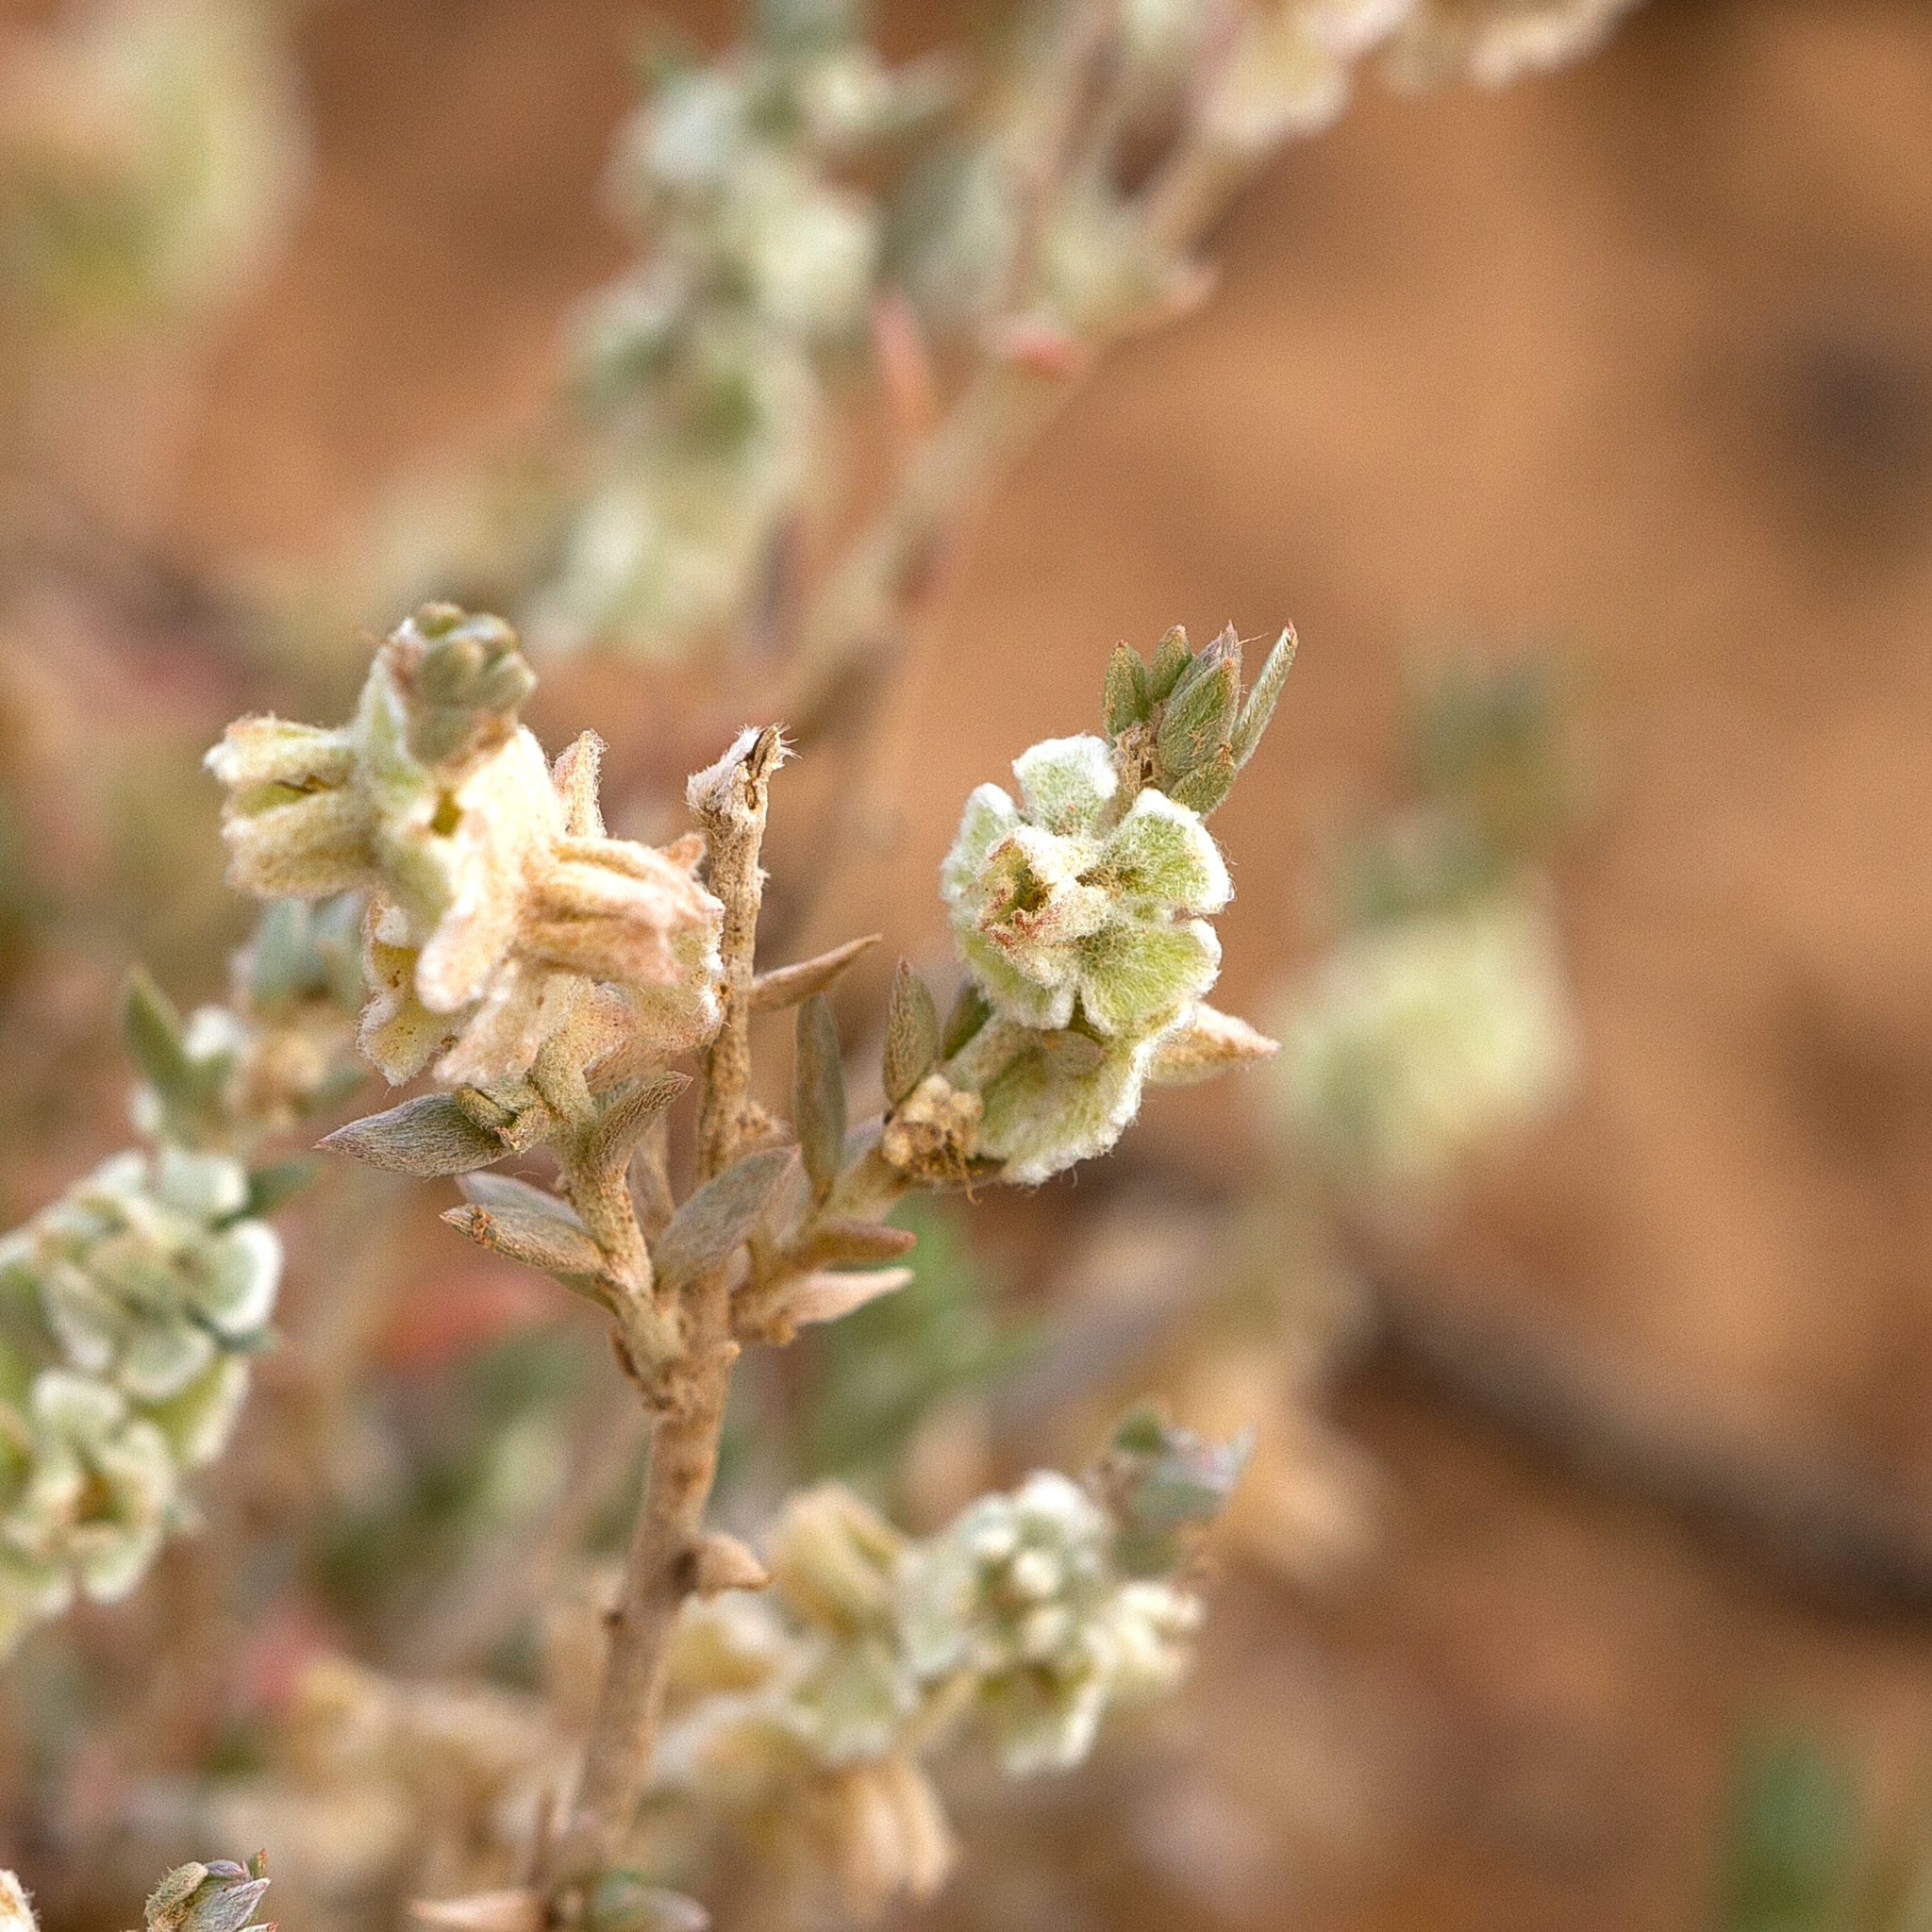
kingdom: Plantae
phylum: Tracheophyta
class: Magnoliopsida
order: Caryophyllales
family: Amaranthaceae
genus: Maireana
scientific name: Maireana lobiflora
